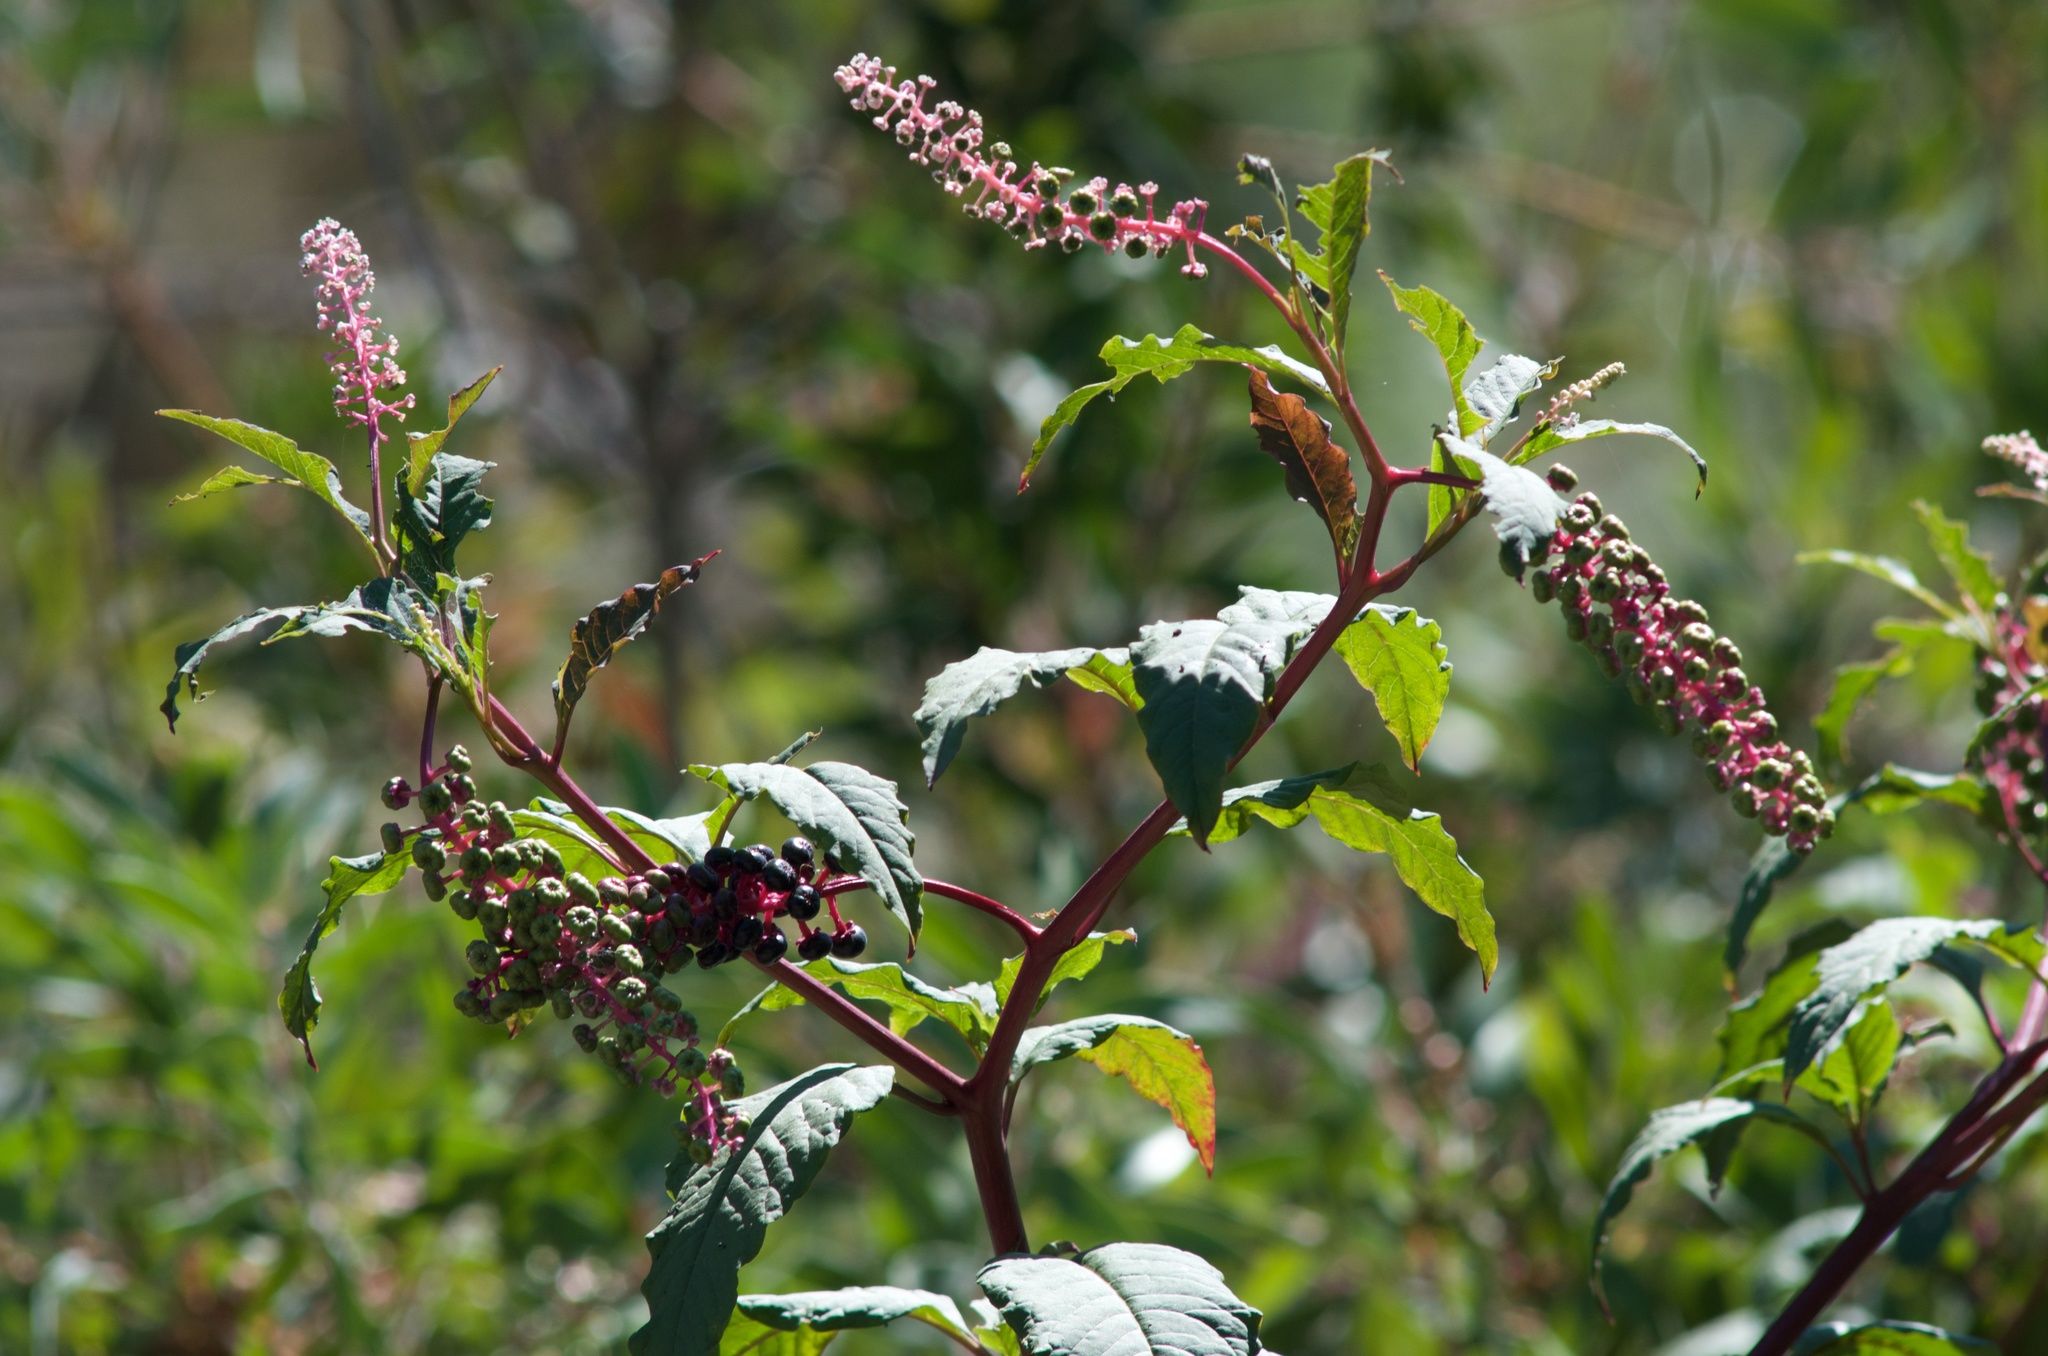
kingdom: Plantae
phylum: Tracheophyta
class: Magnoliopsida
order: Caryophyllales
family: Phytolaccaceae
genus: Phytolacca
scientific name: Phytolacca americana
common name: American pokeweed
